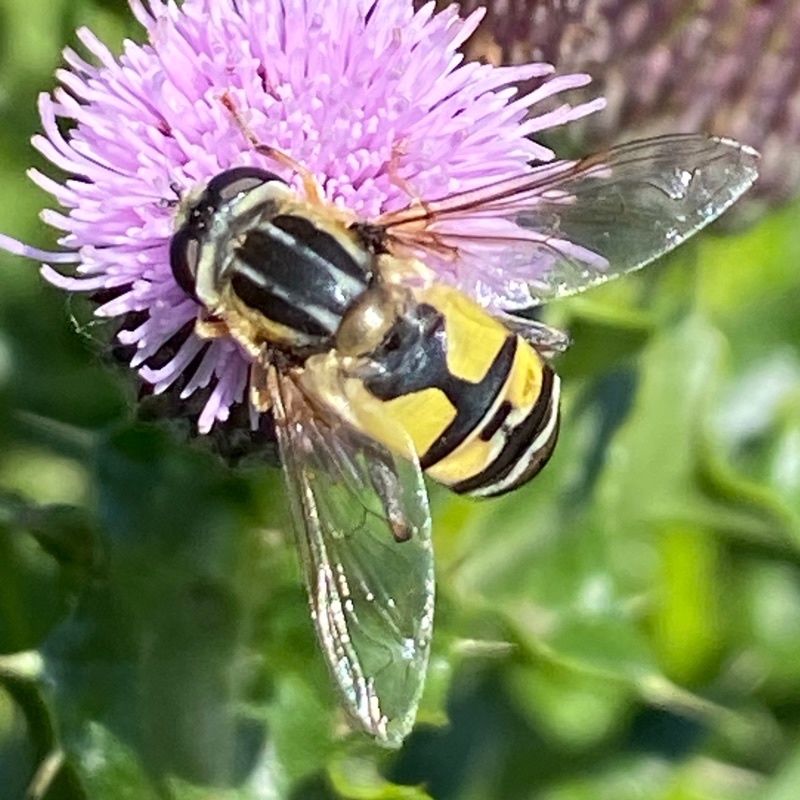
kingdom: Animalia
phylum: Arthropoda
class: Insecta
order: Diptera
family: Syrphidae
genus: Helophilus
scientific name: Helophilus trivittatus
